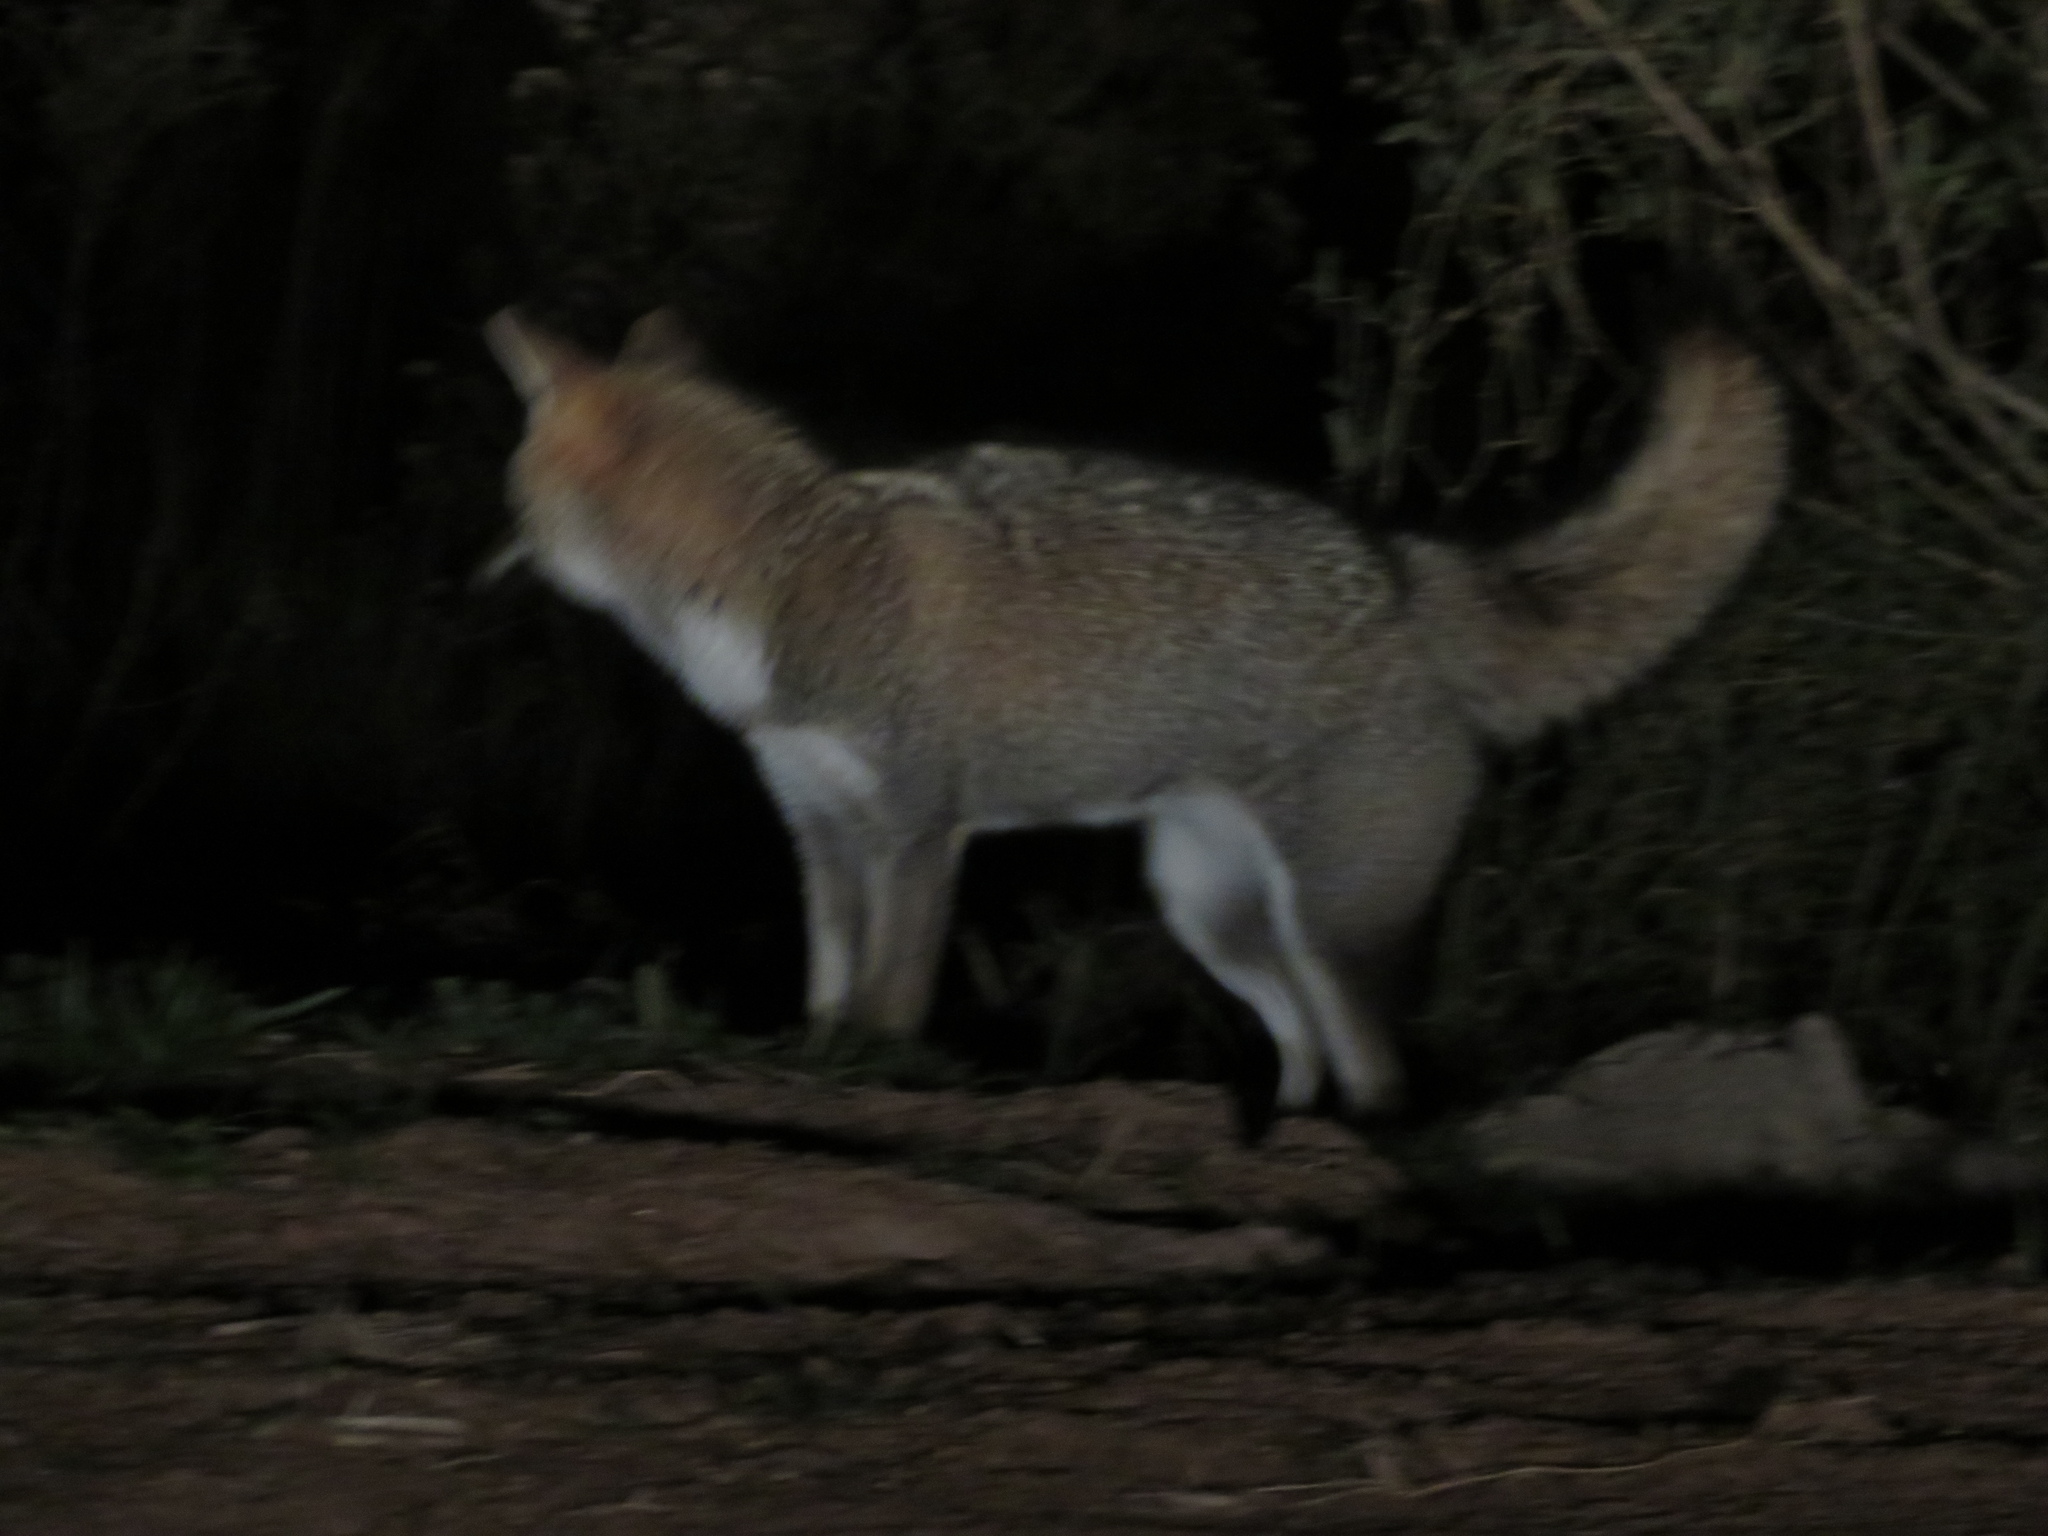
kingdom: Animalia
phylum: Chordata
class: Mammalia
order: Carnivora
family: Canidae
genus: Lycalopex
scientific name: Lycalopex gymnocercus
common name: Pampas fox
